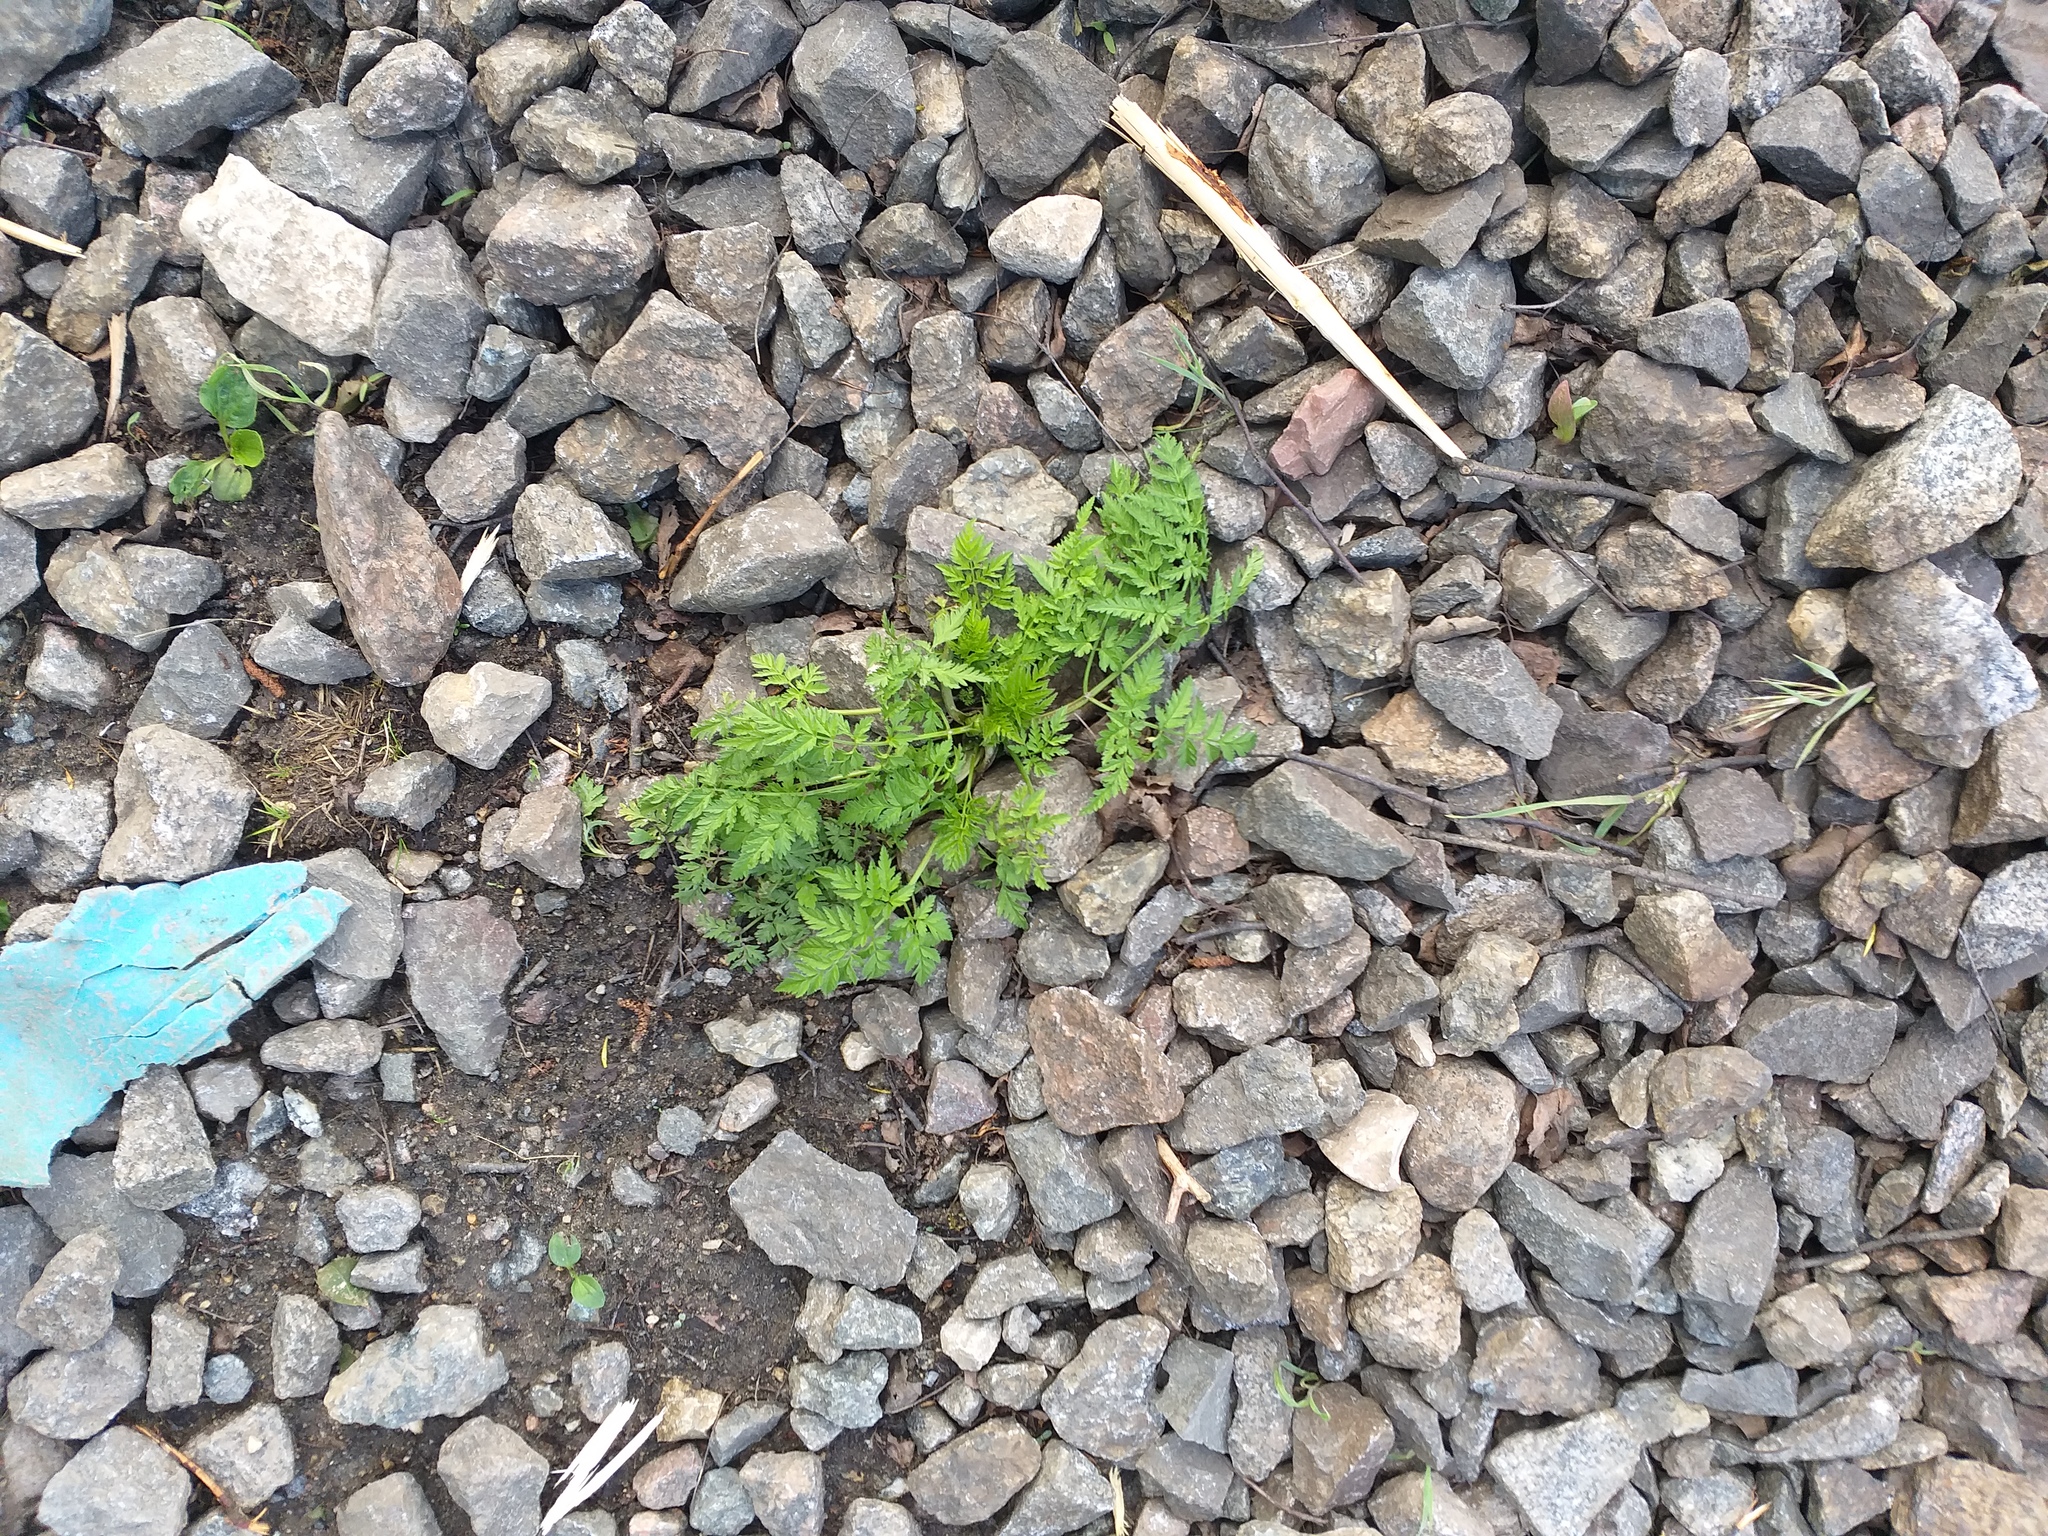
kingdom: Plantae
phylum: Tracheophyta
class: Magnoliopsida
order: Apiales
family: Apiaceae
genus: Anthriscus
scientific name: Anthriscus sylvestris
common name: Cow parsley
